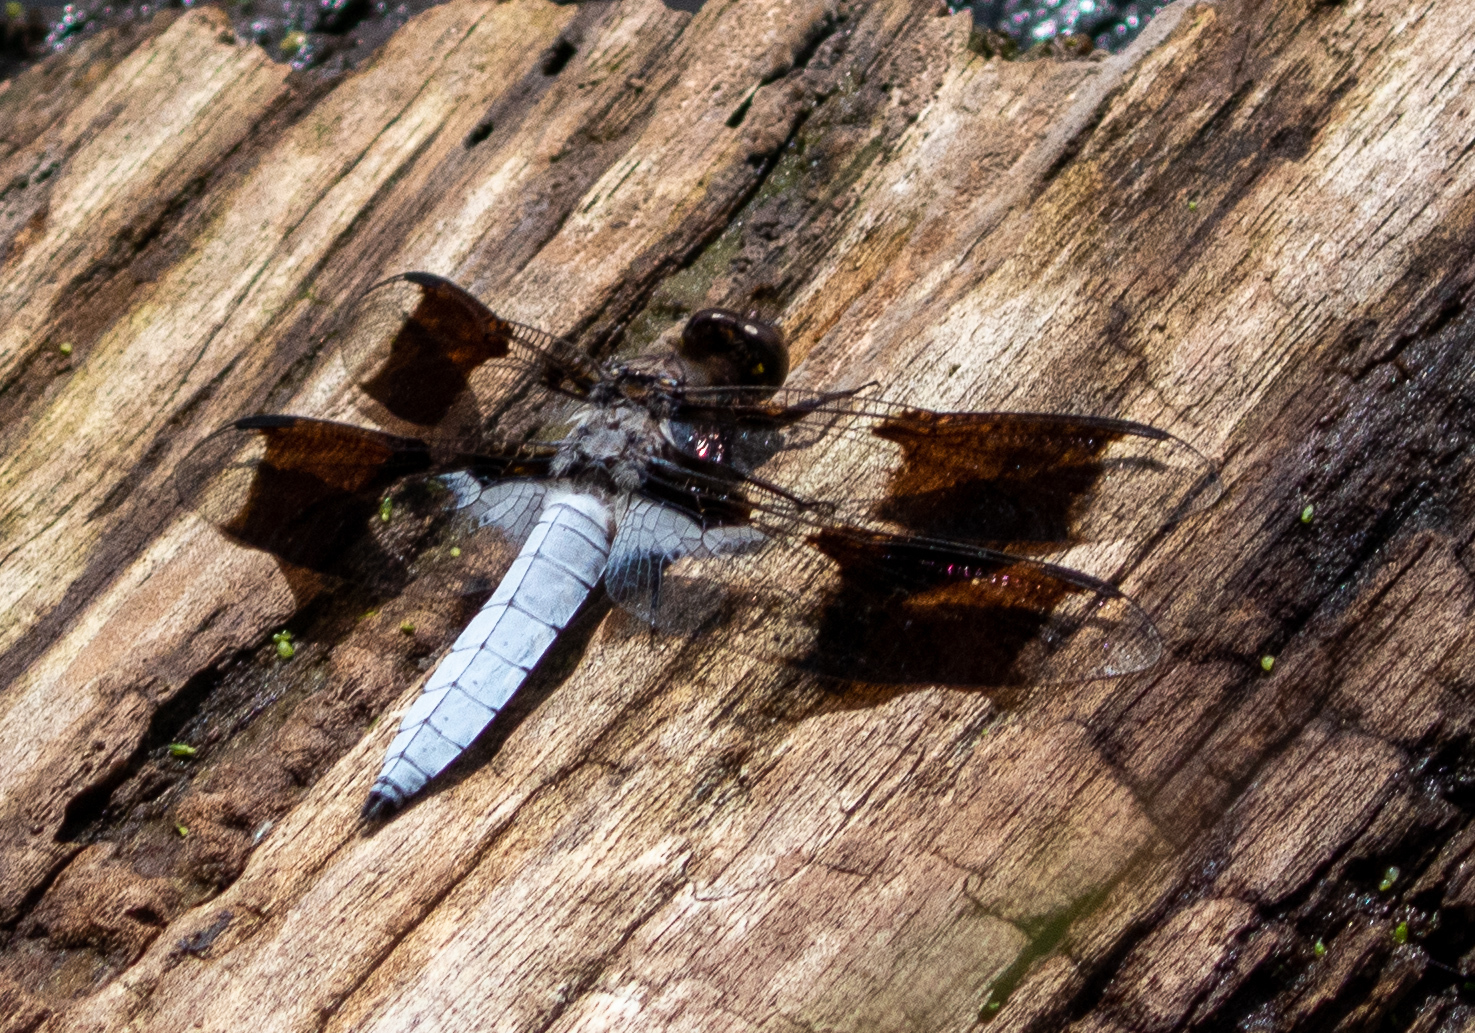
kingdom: Animalia
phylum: Arthropoda
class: Insecta
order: Odonata
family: Libellulidae
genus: Plathemis
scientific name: Plathemis lydia
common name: Common whitetail
